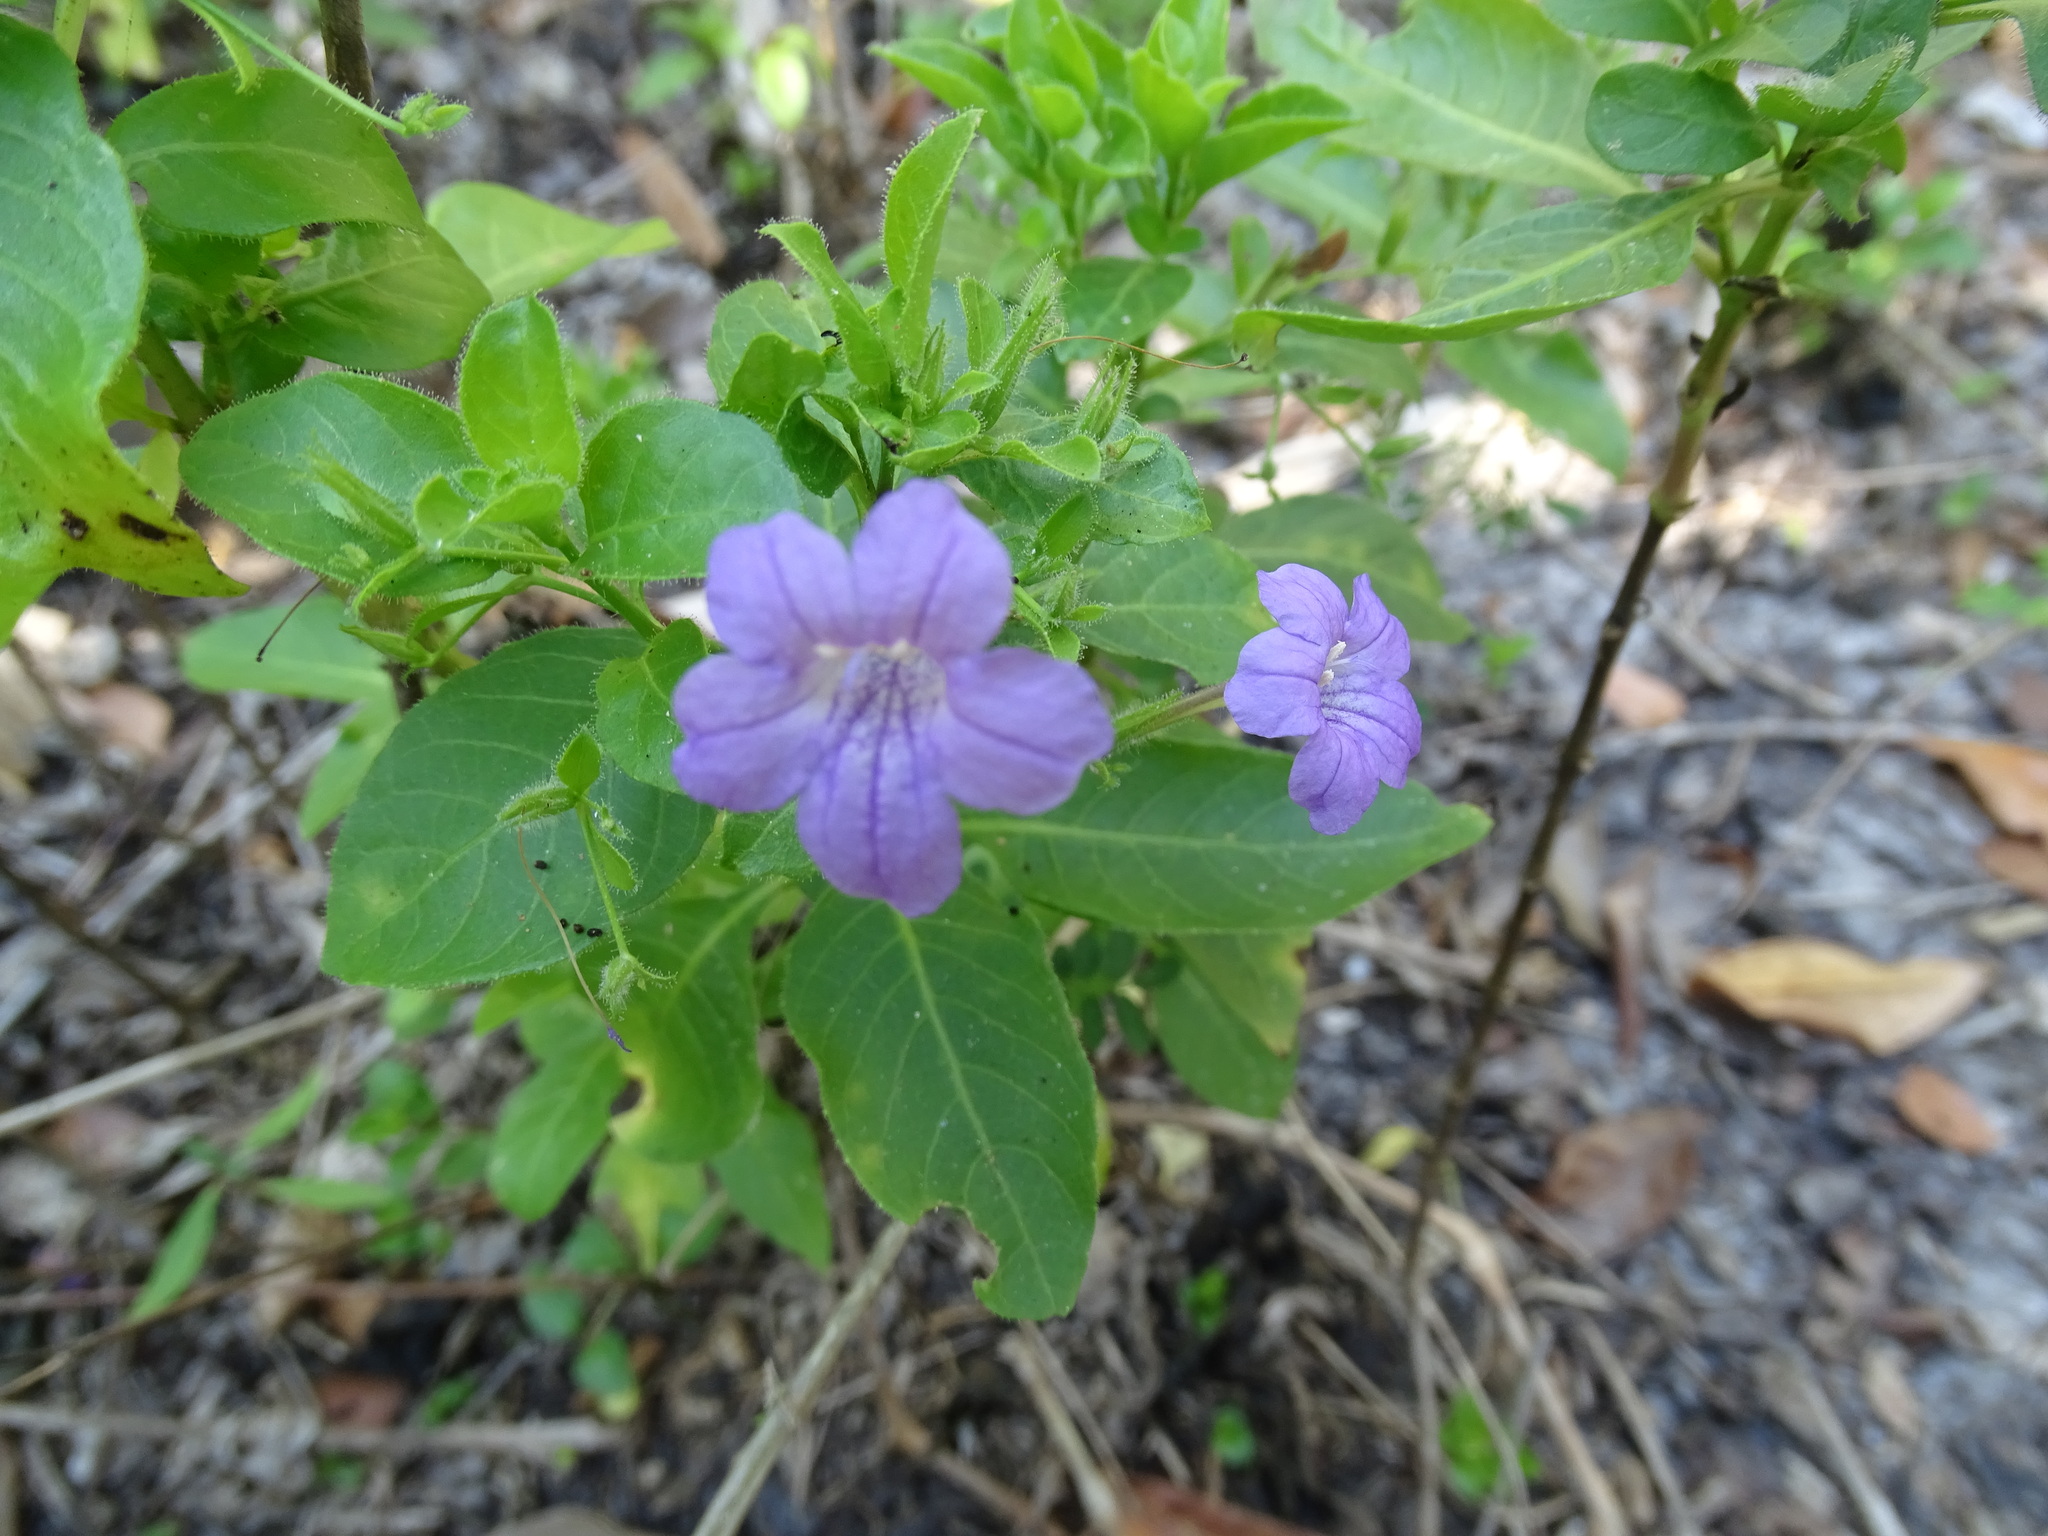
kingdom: Plantae
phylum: Tracheophyta
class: Magnoliopsida
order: Lamiales
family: Acanthaceae
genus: Ruellia
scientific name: Ruellia paniculata
